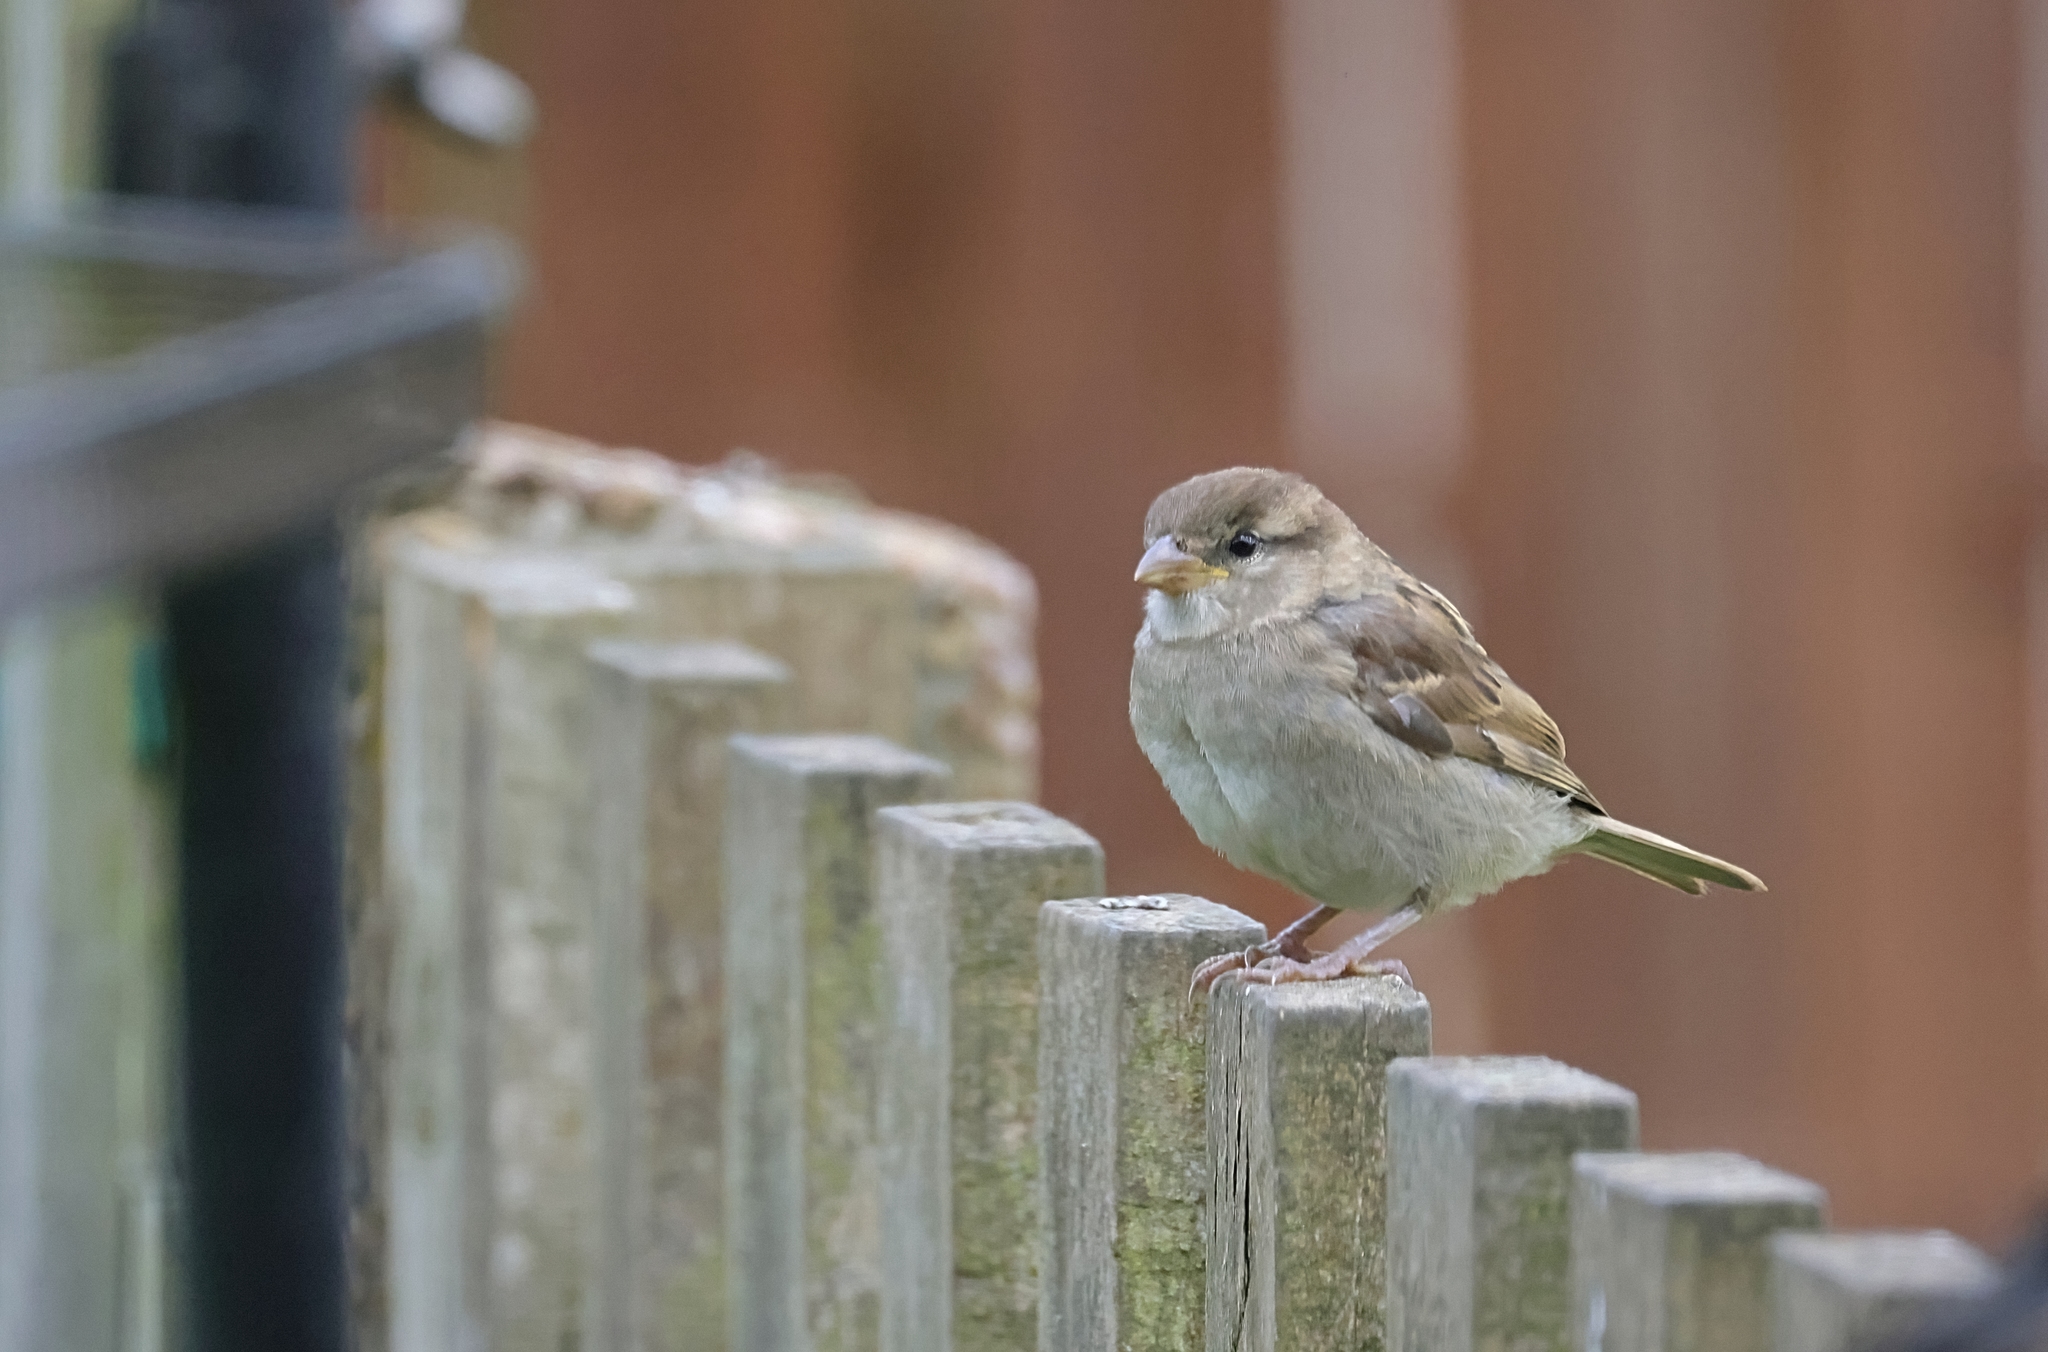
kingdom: Animalia
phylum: Chordata
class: Aves
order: Passeriformes
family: Passeridae
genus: Passer
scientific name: Passer domesticus
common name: House sparrow
